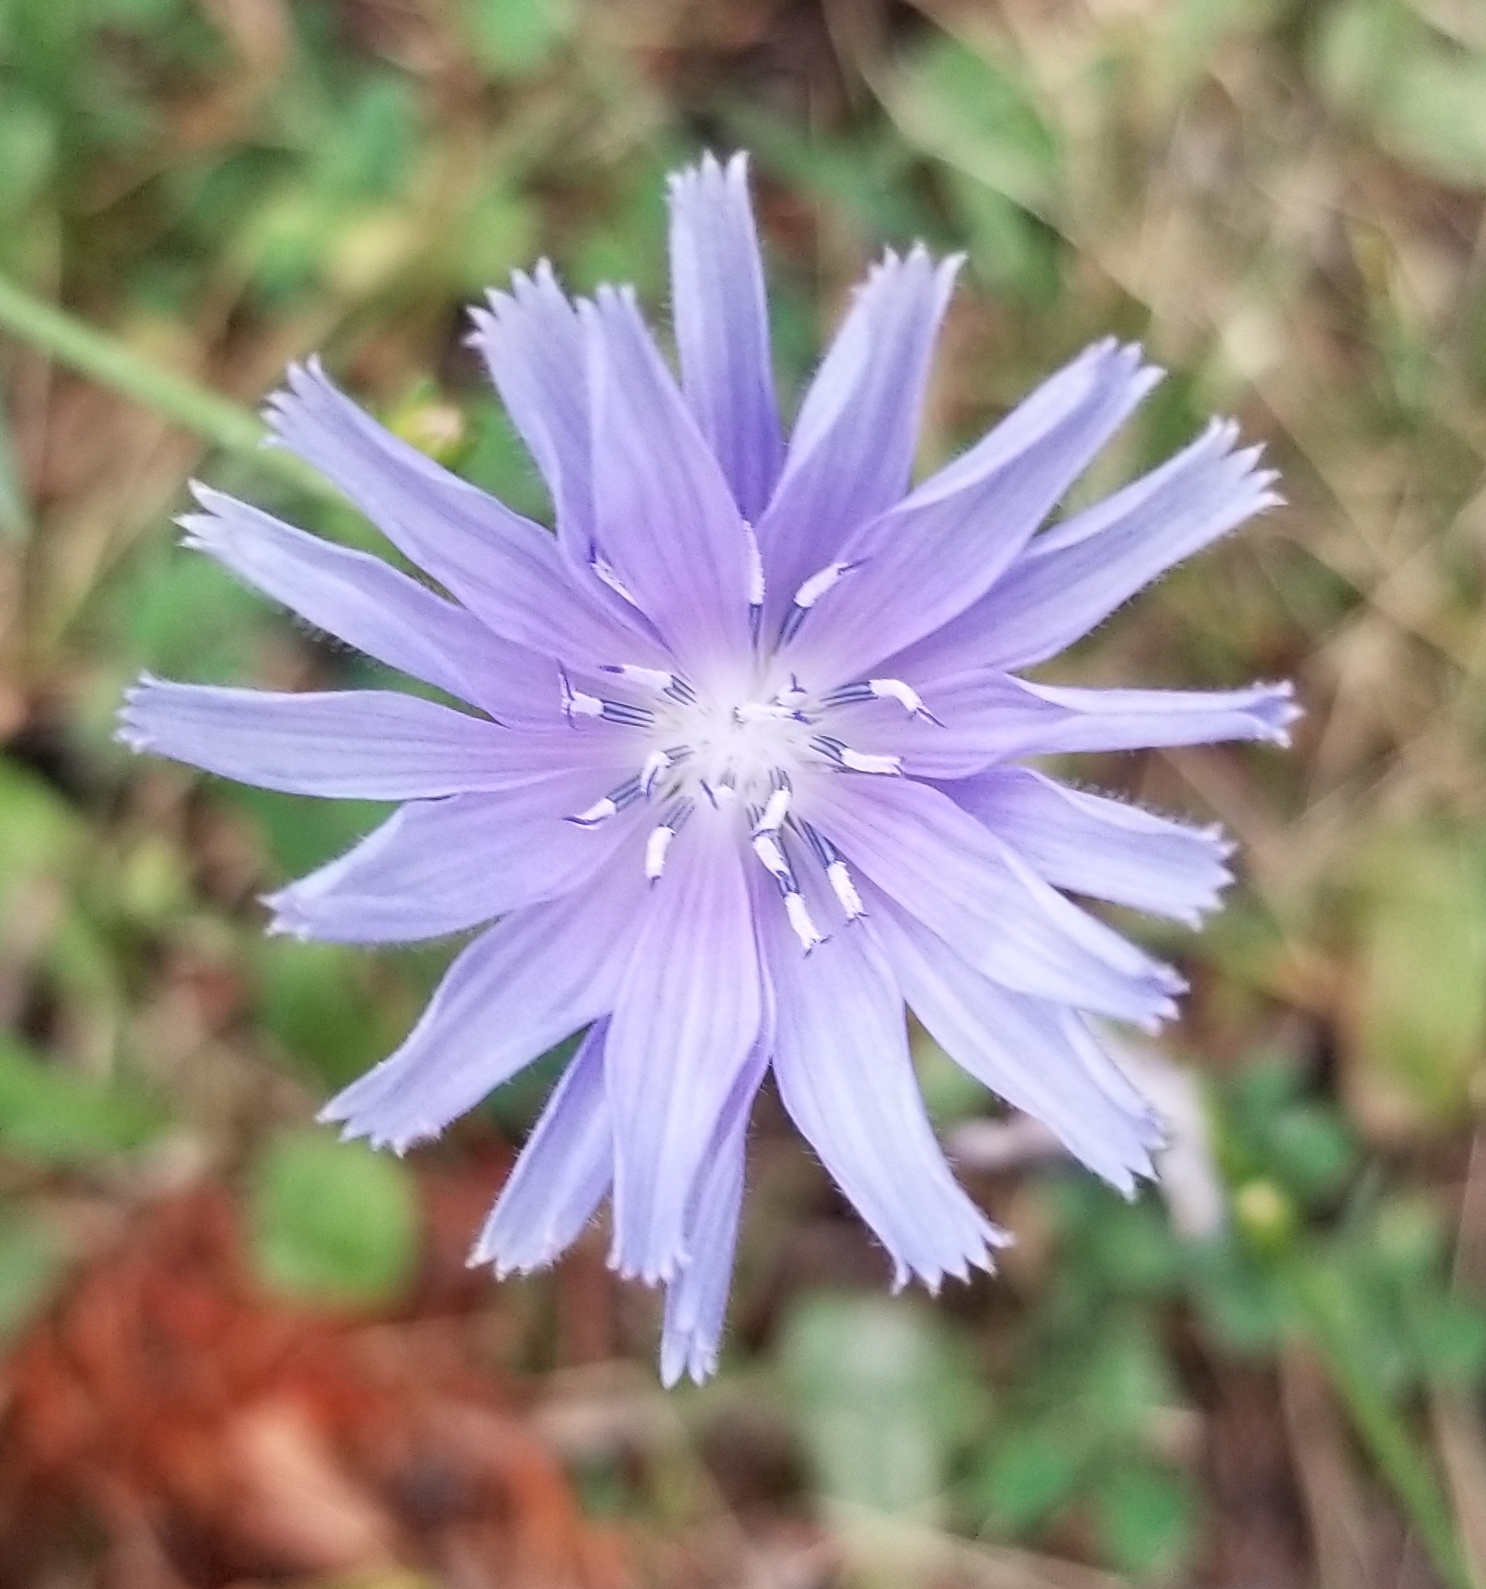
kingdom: Plantae
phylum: Tracheophyta
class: Magnoliopsida
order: Asterales
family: Asteraceae
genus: Cichorium
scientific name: Cichorium intybus
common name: Chicory
